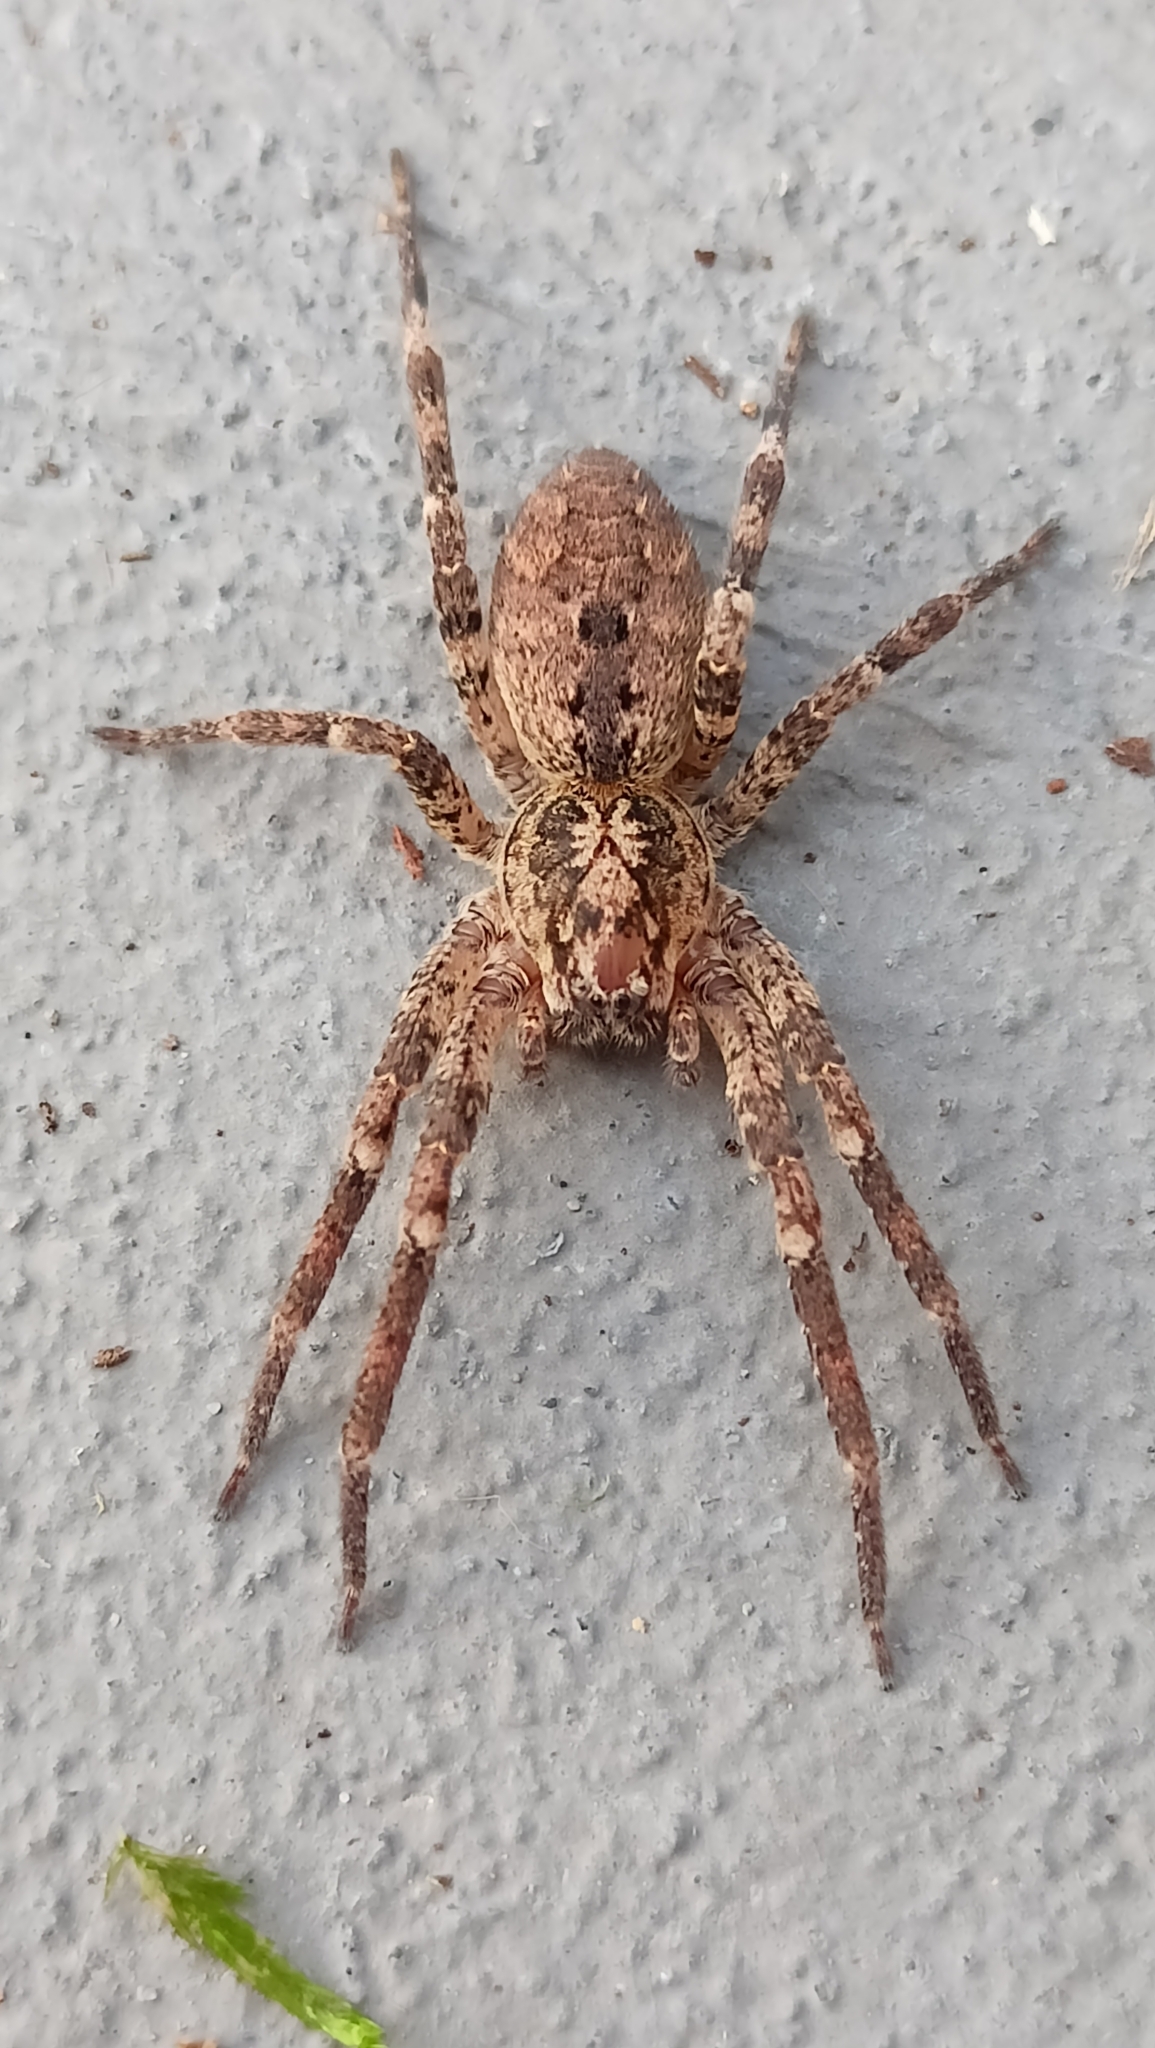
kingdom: Animalia
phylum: Arthropoda
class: Arachnida
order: Araneae
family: Zoropsidae
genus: Zoropsis
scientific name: Zoropsis spinimana
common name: Zoropsid spider
